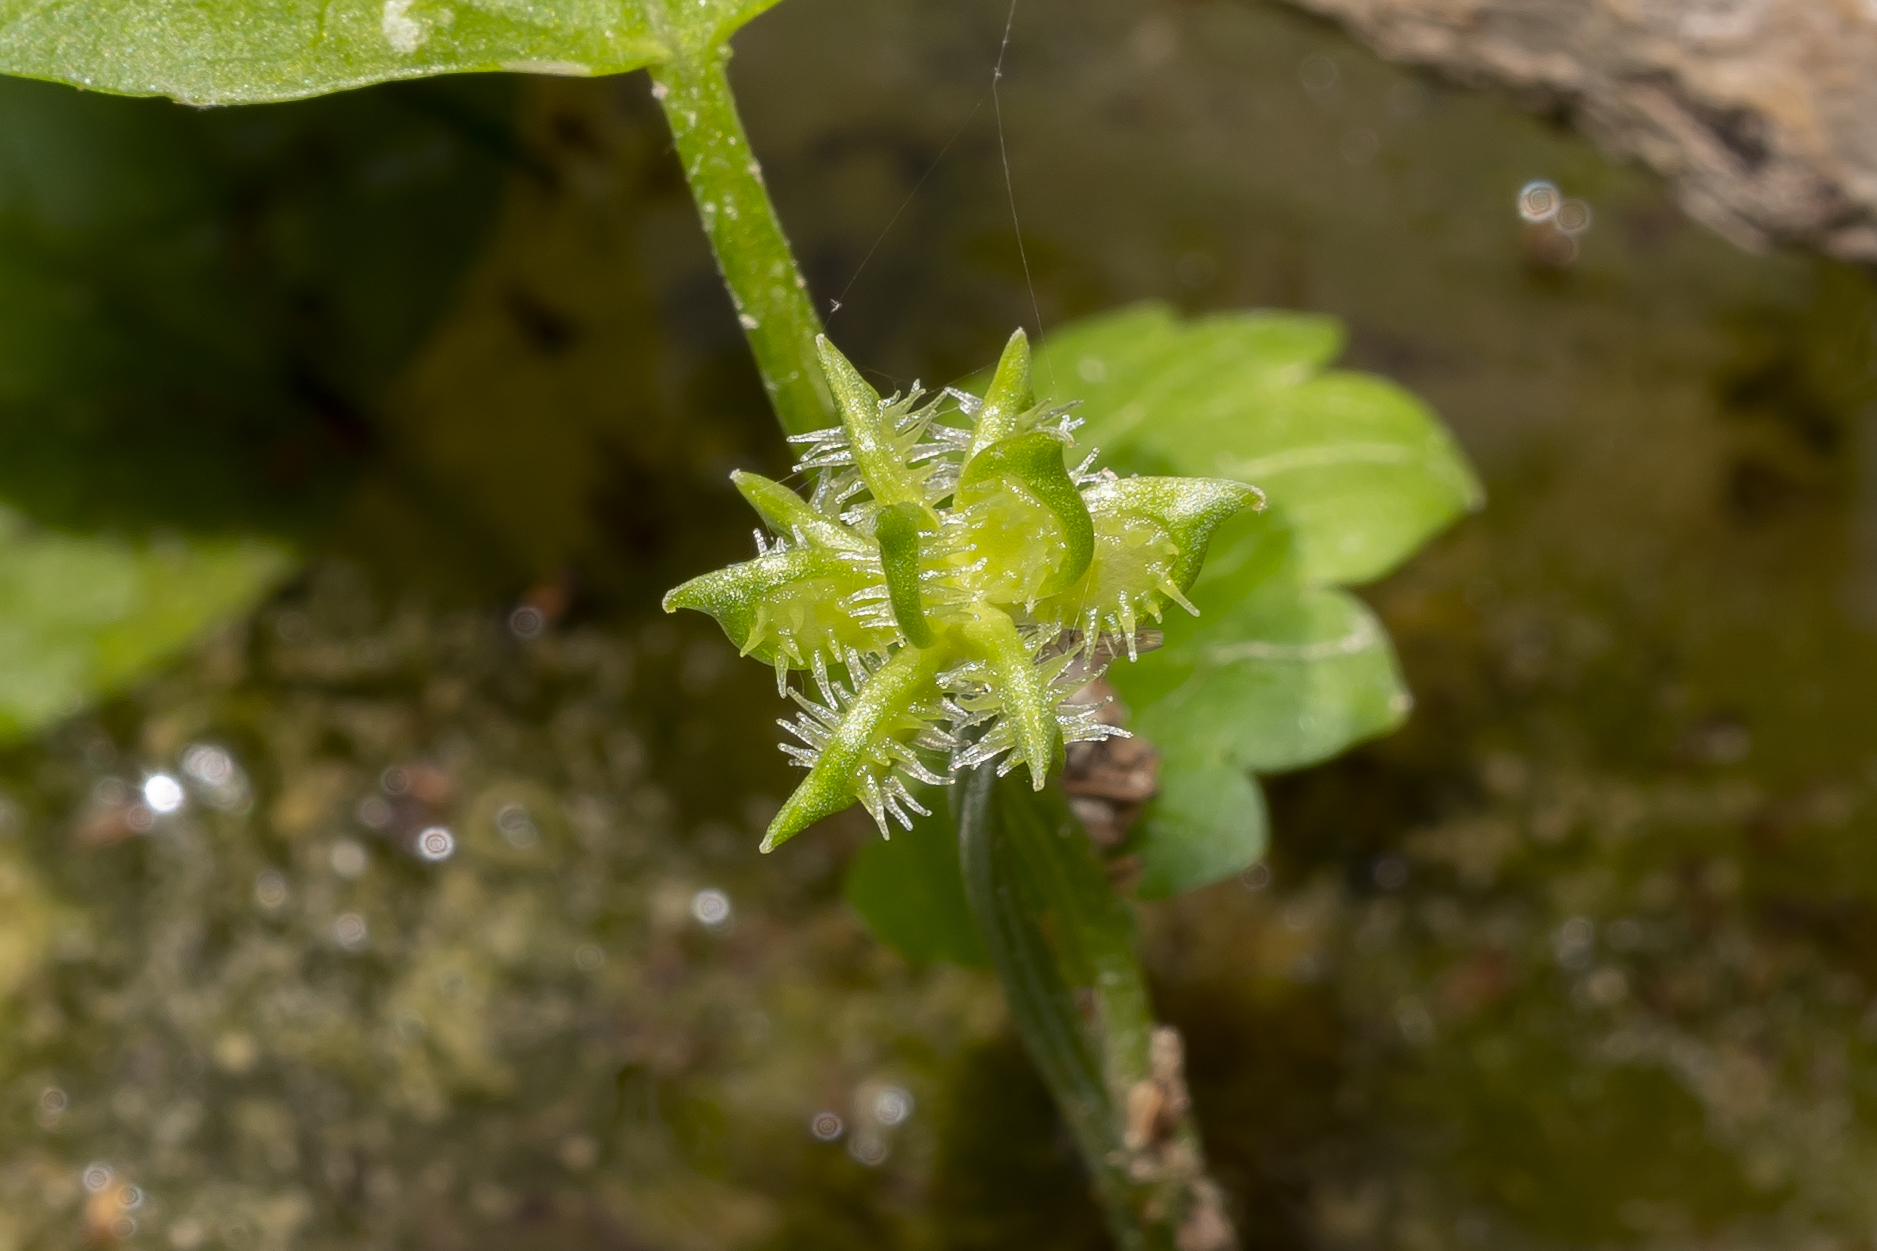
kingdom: Plantae
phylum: Tracheophyta
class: Magnoliopsida
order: Ranunculales
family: Ranunculaceae
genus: Ranunculus
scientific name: Ranunculus muricatus
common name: Rough-fruited buttercup
